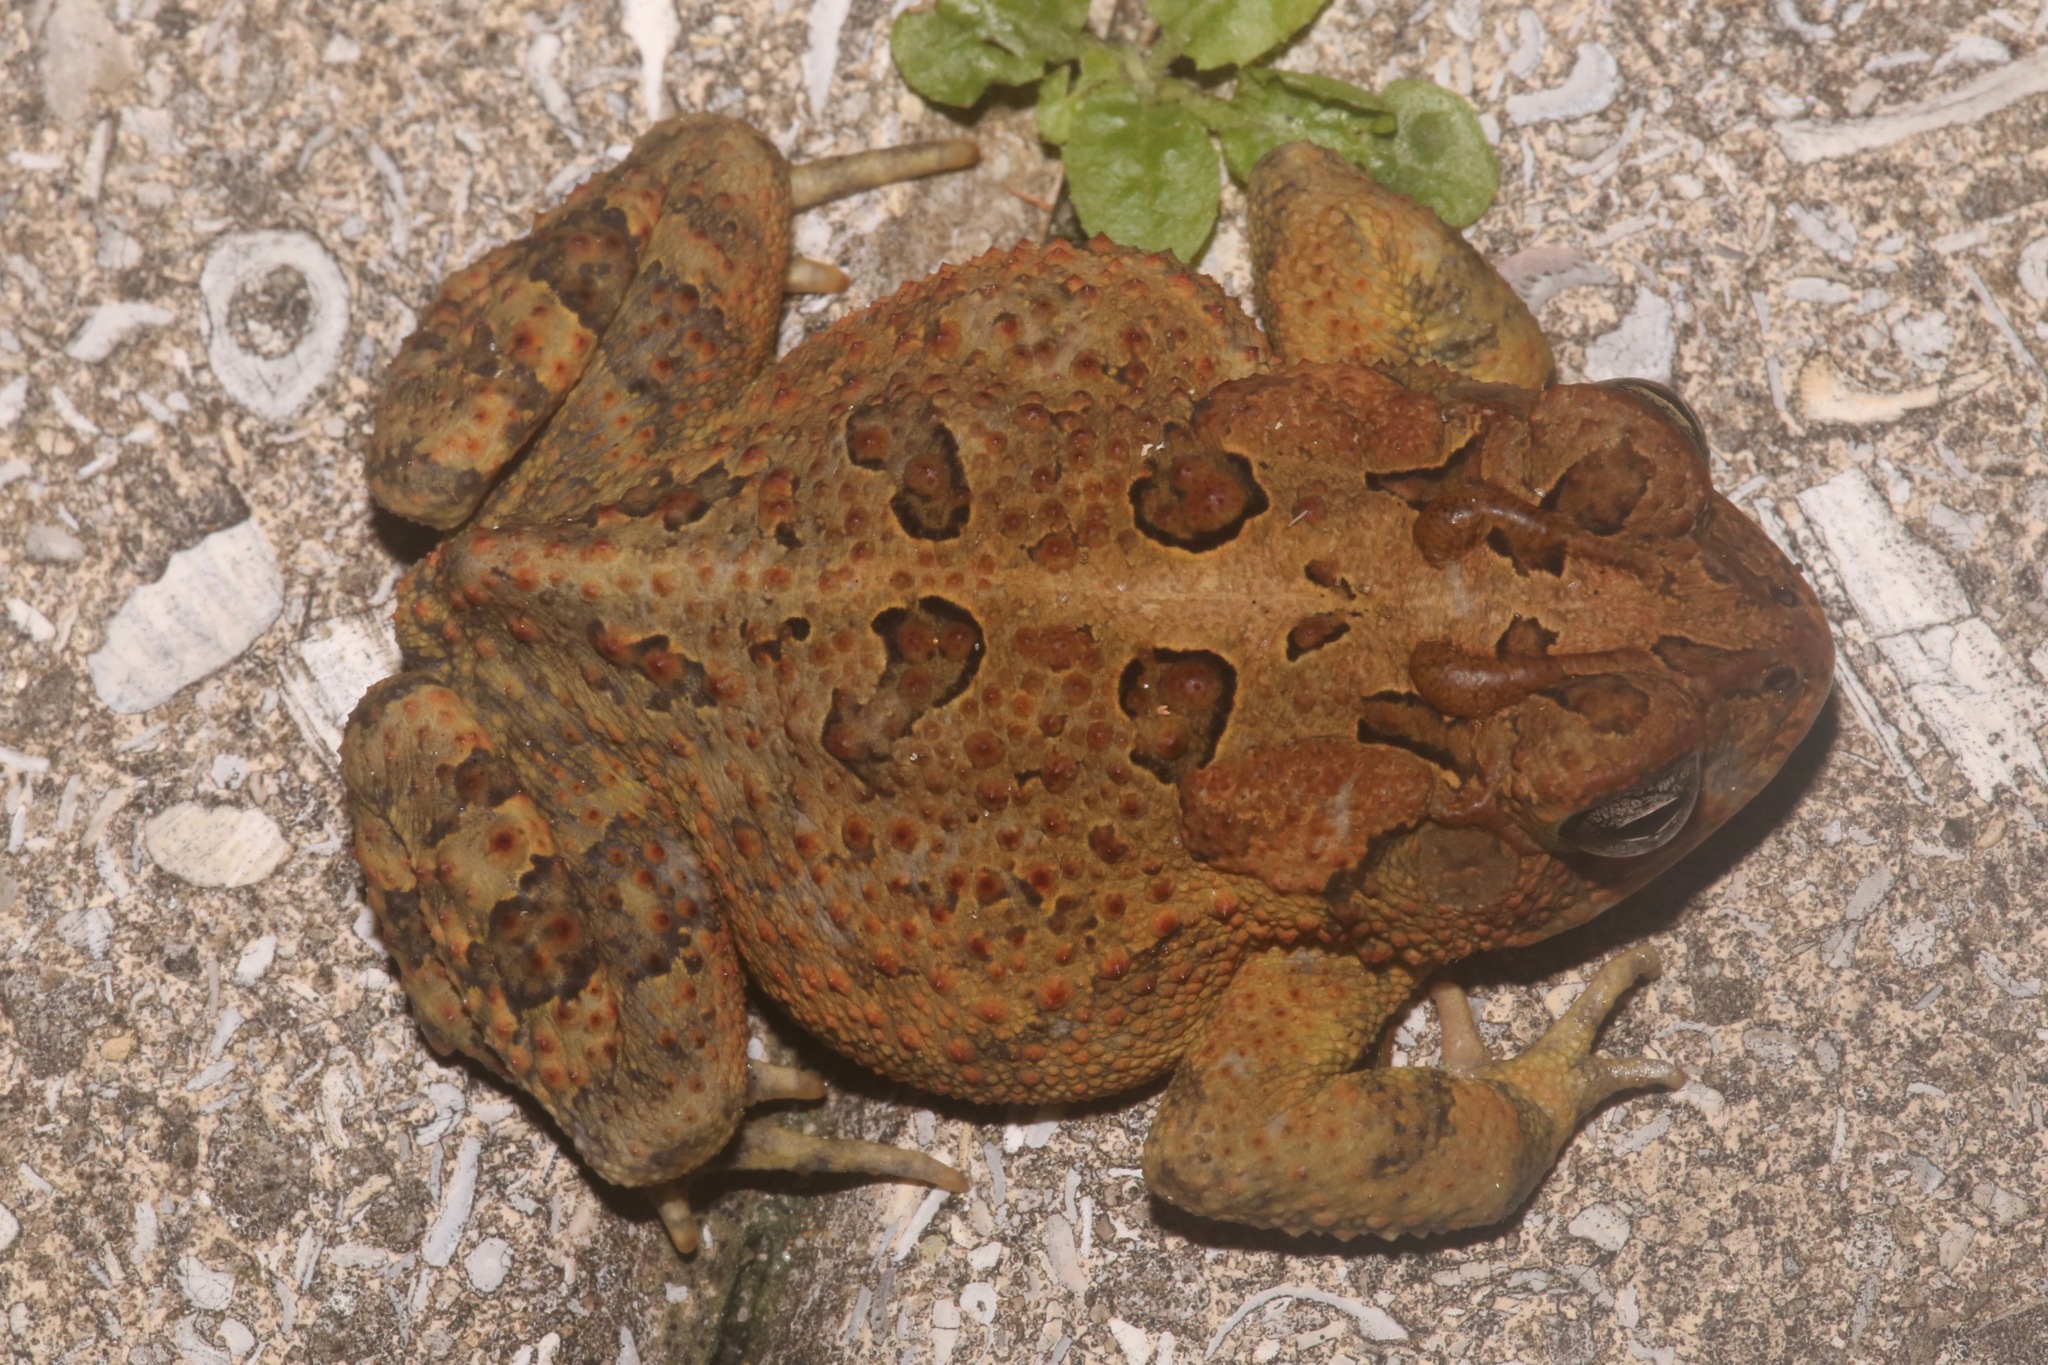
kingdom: Animalia
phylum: Chordata
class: Amphibia
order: Anura
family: Bufonidae
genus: Anaxyrus
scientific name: Anaxyrus terrestris
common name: Southern toad
